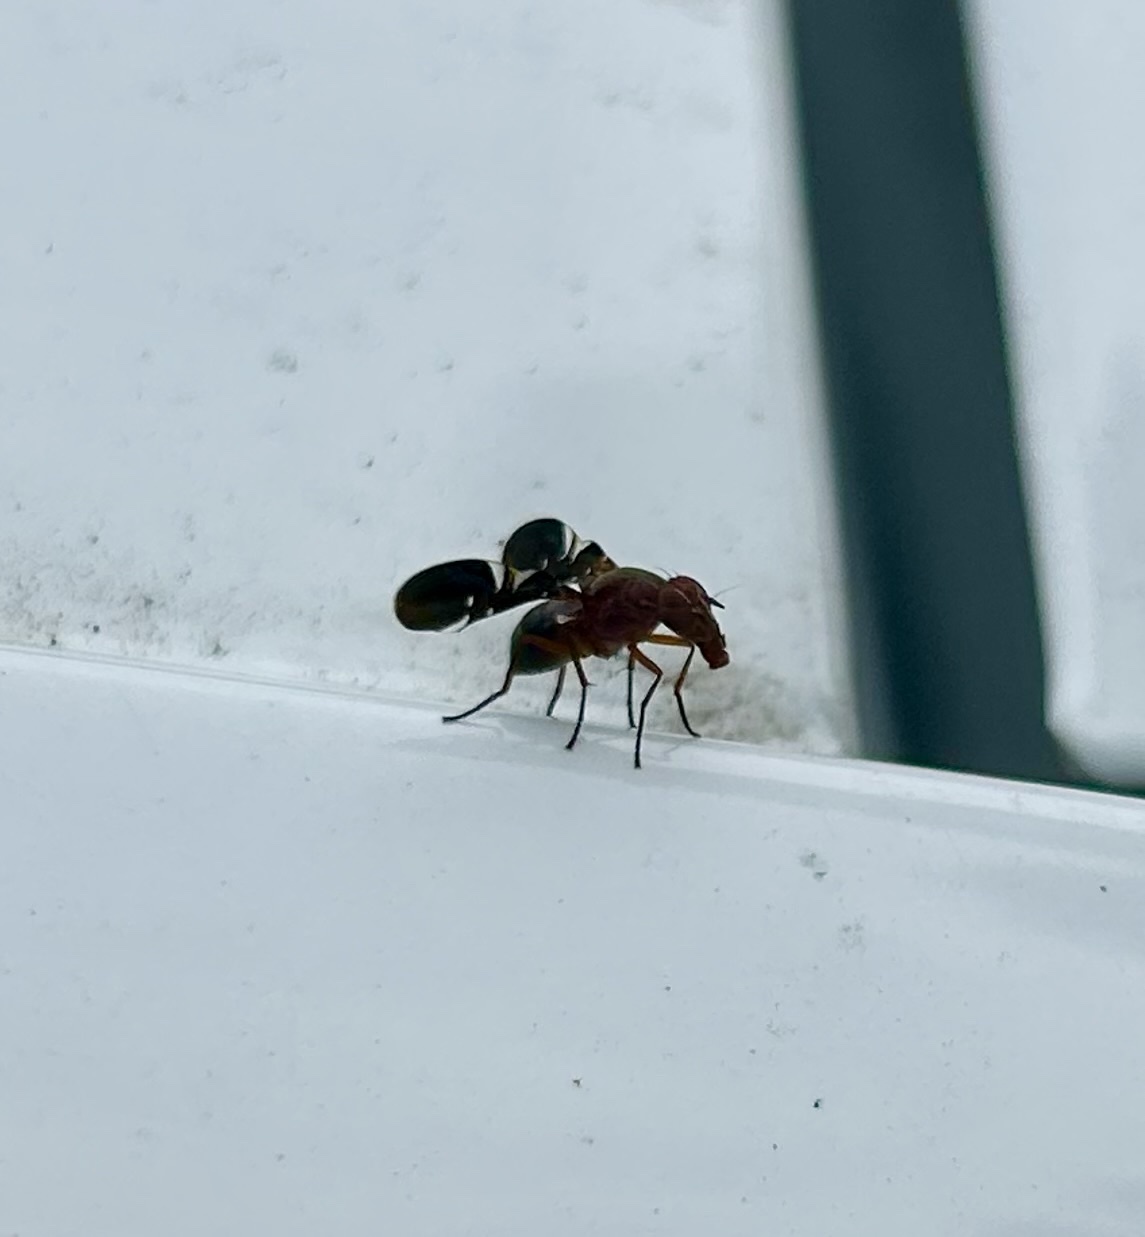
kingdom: Animalia
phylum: Arthropoda
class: Insecta
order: Diptera
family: Ulidiidae
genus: Delphinia
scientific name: Delphinia picta
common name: Common picture-winged fly
